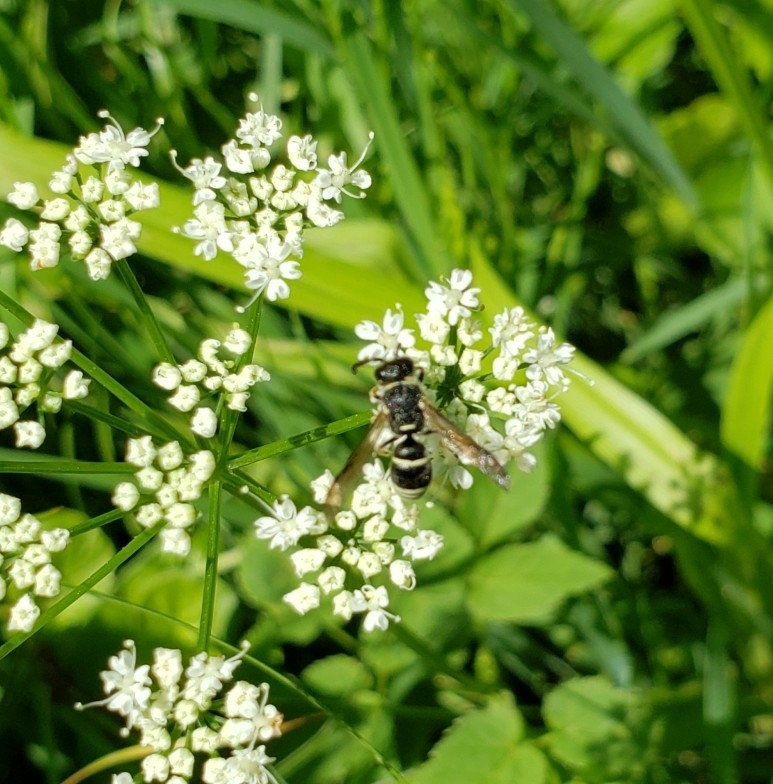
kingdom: Animalia
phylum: Arthropoda
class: Insecta
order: Hymenoptera
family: Eumenidae
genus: Euodynerus
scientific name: Euodynerus
